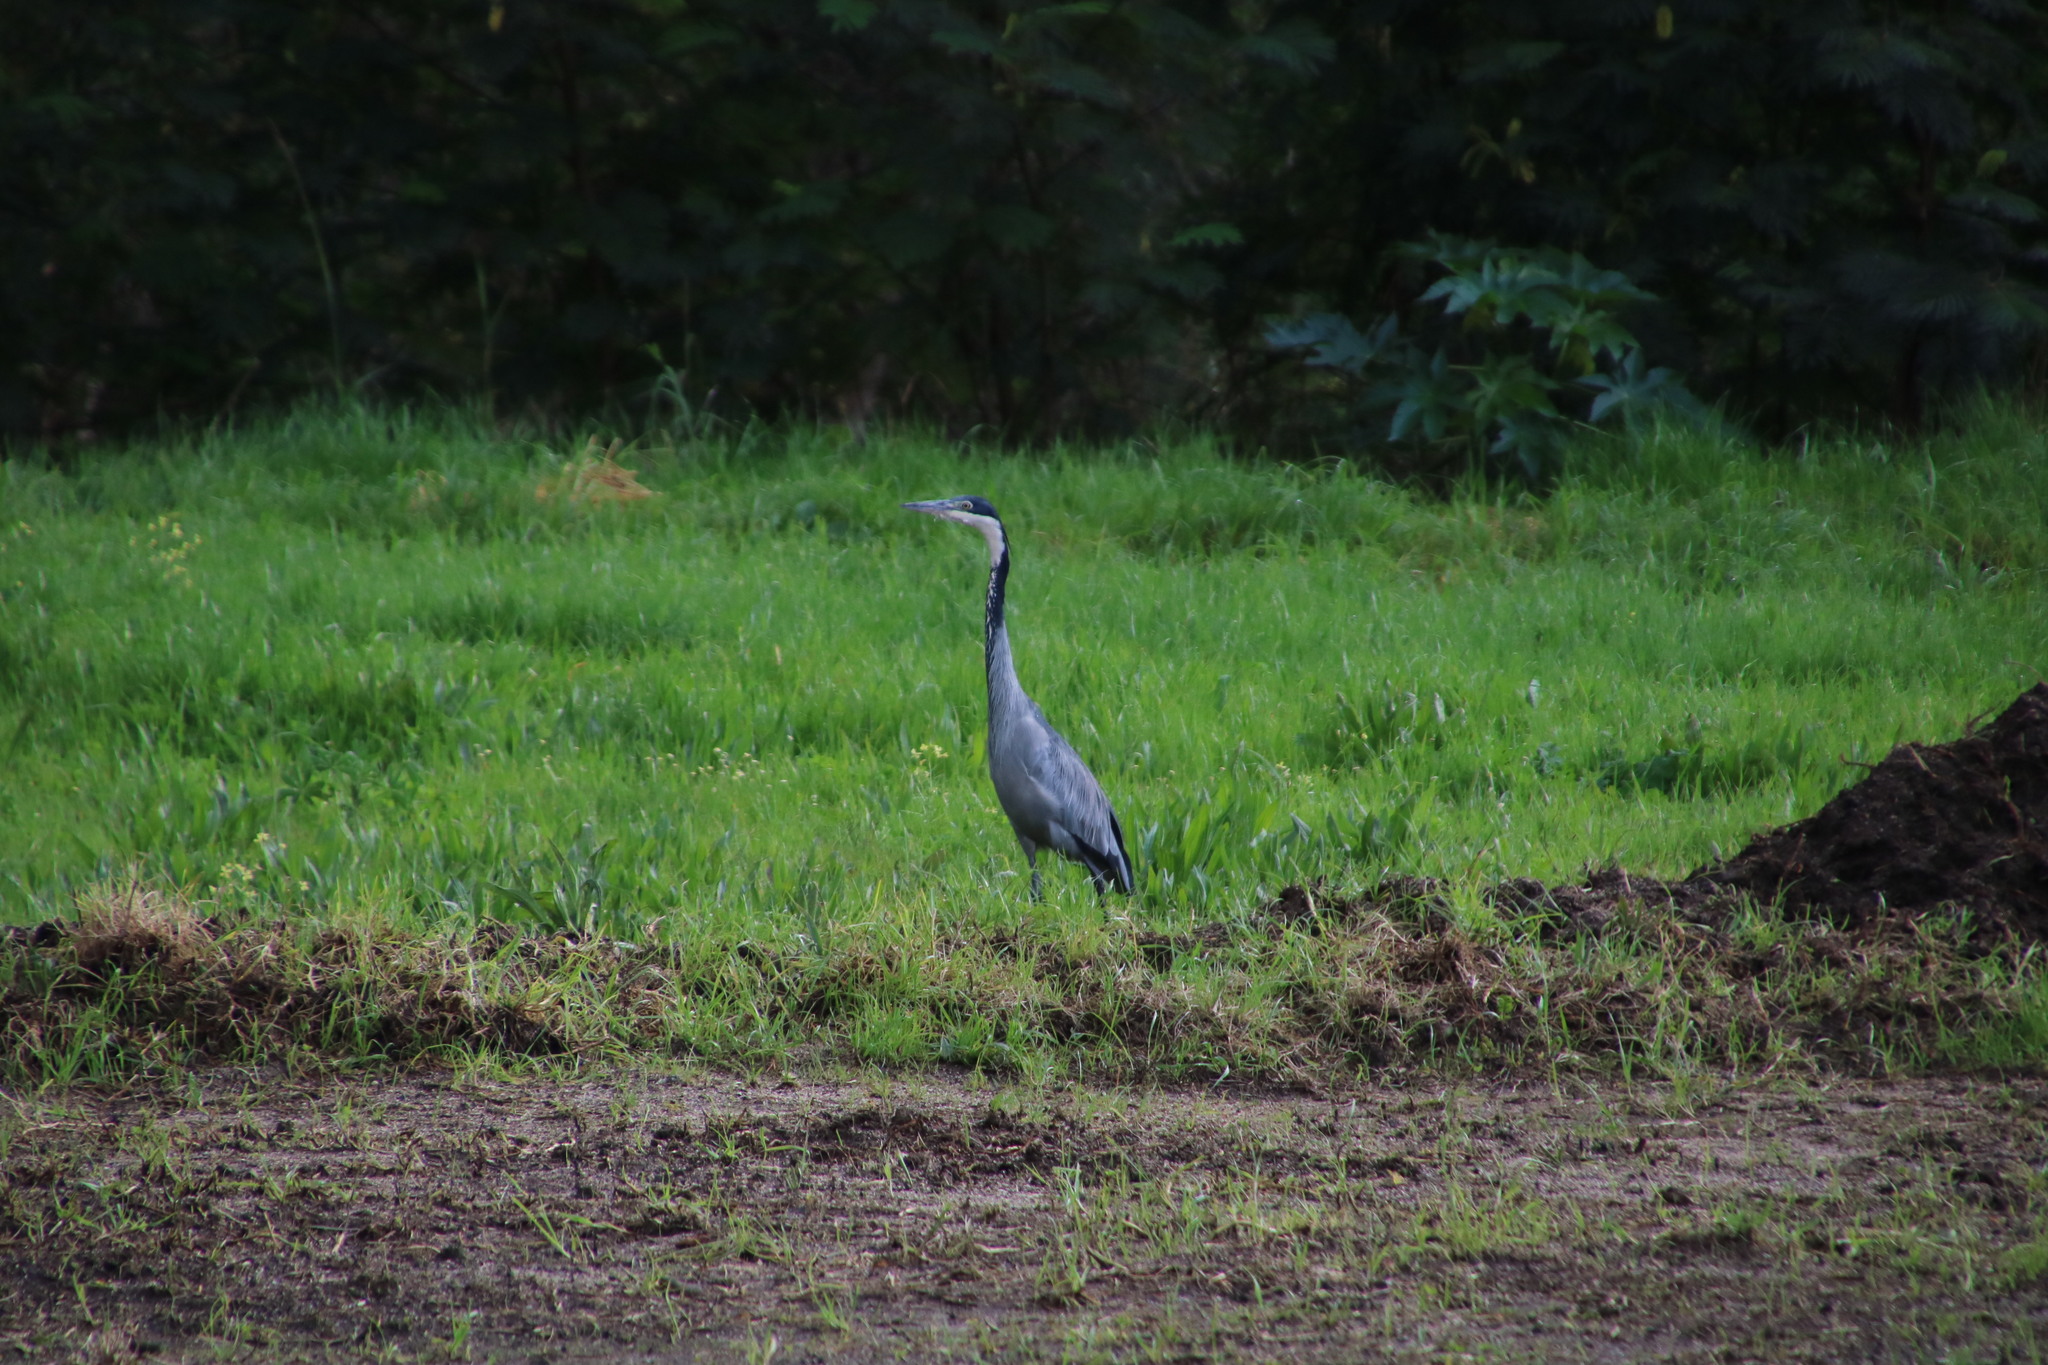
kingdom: Animalia
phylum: Chordata
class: Aves
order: Pelecaniformes
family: Ardeidae
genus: Ardea
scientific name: Ardea melanocephala
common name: Black-headed heron
